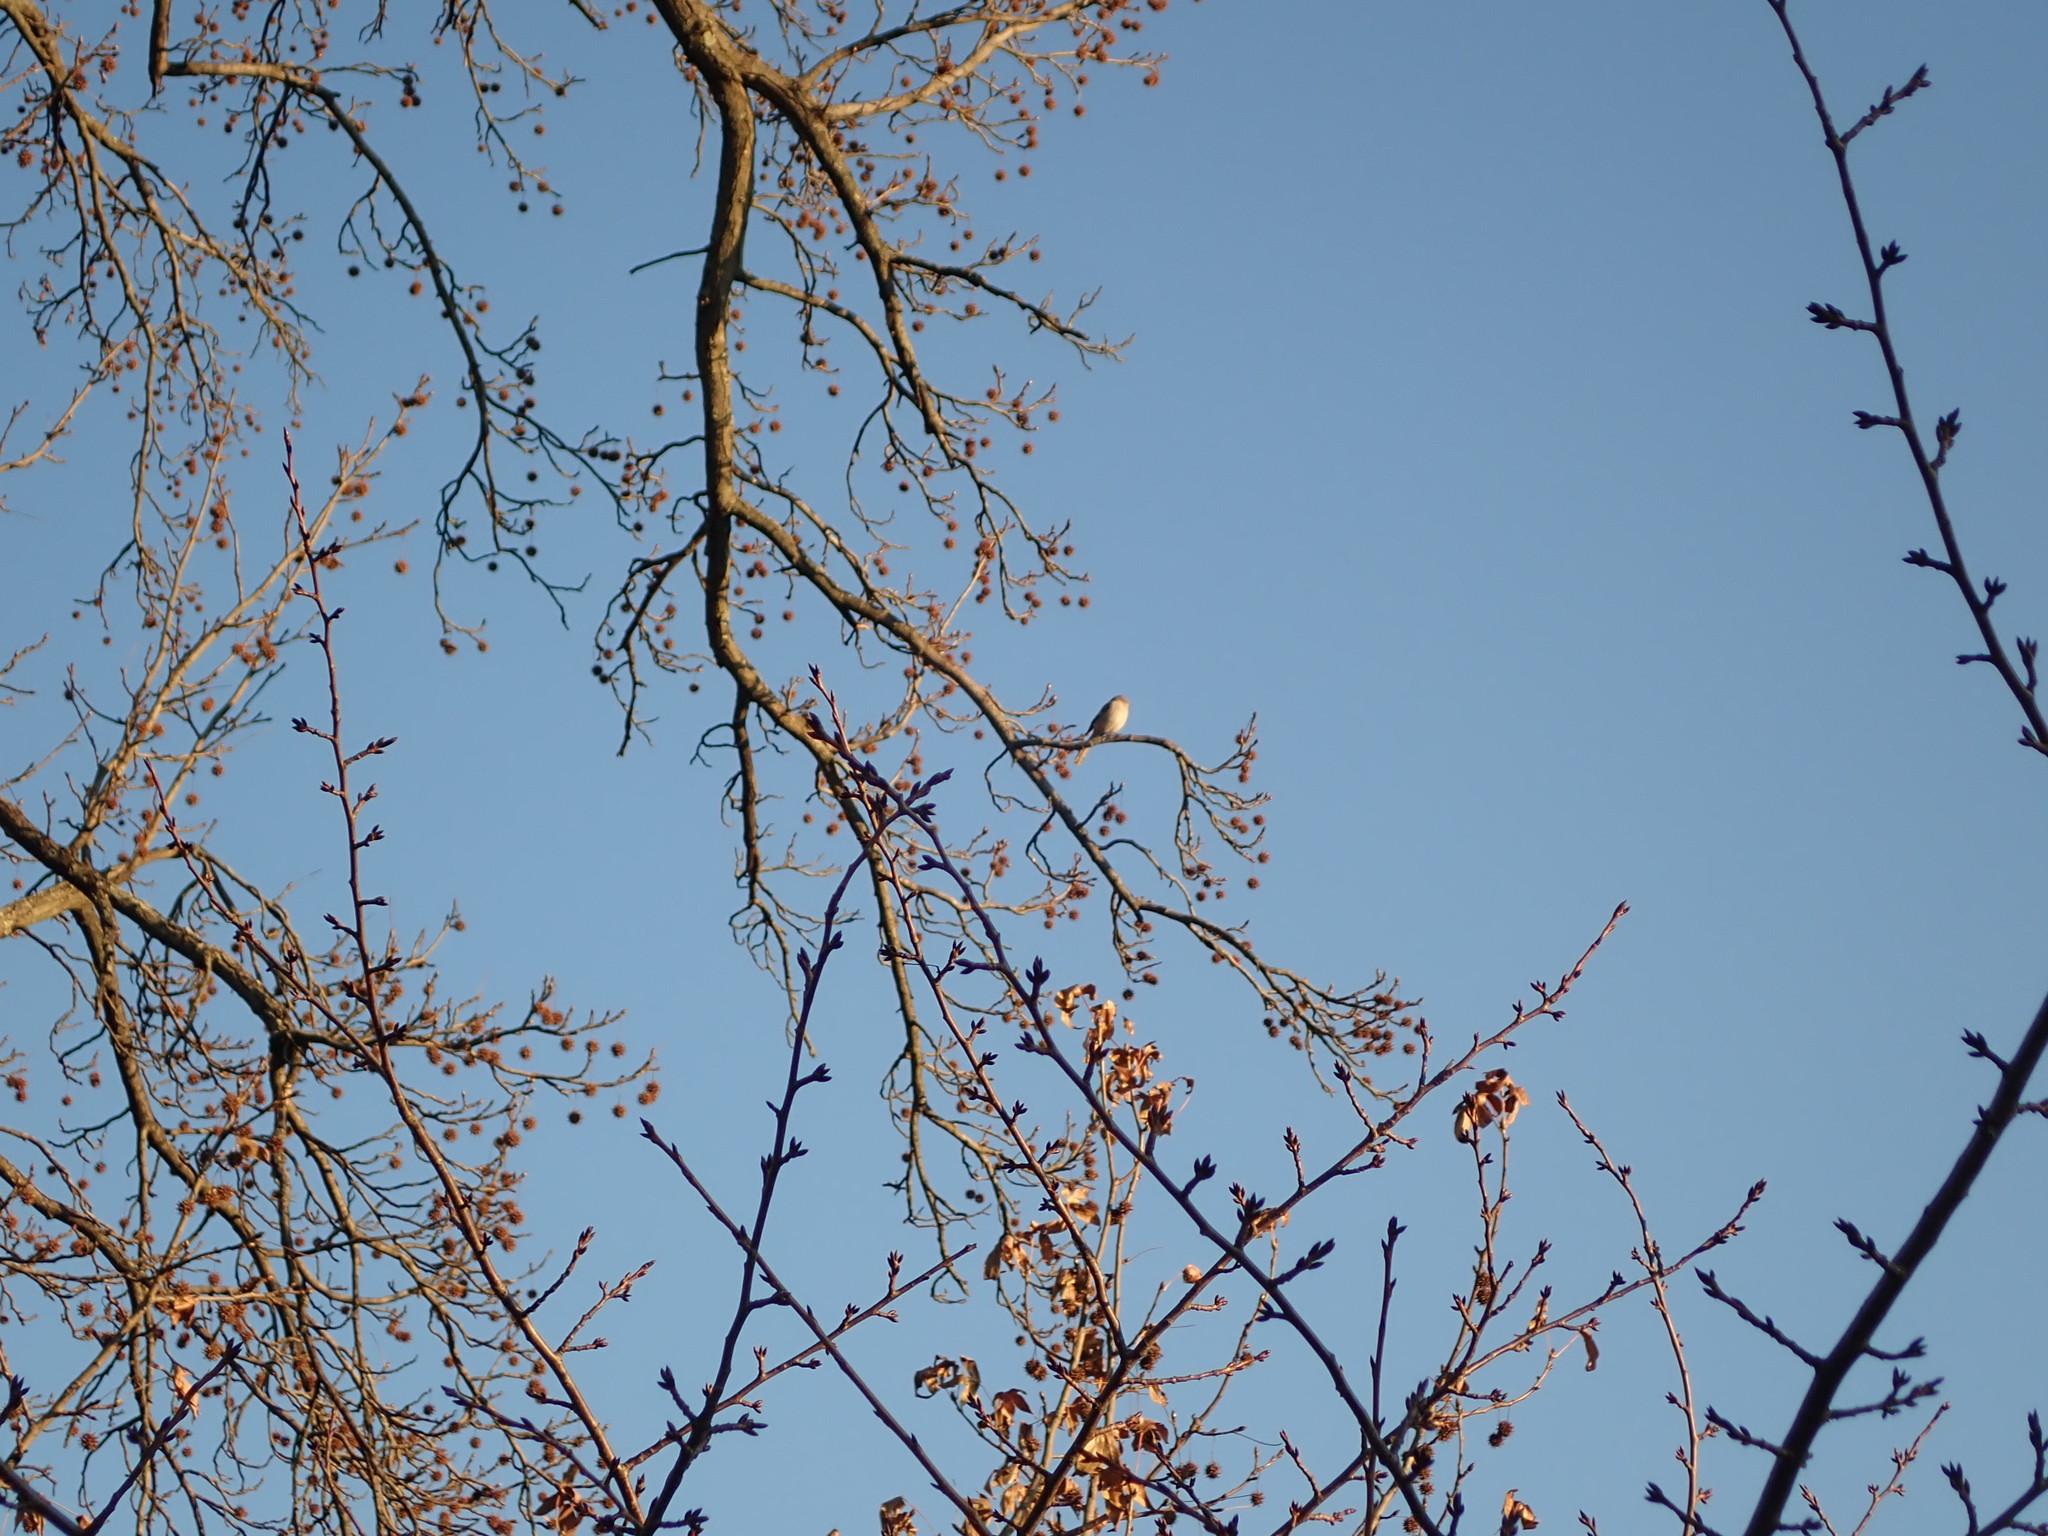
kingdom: Animalia
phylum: Chordata
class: Aves
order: Passeriformes
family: Mimidae
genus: Mimus
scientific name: Mimus polyglottos
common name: Northern mockingbird
